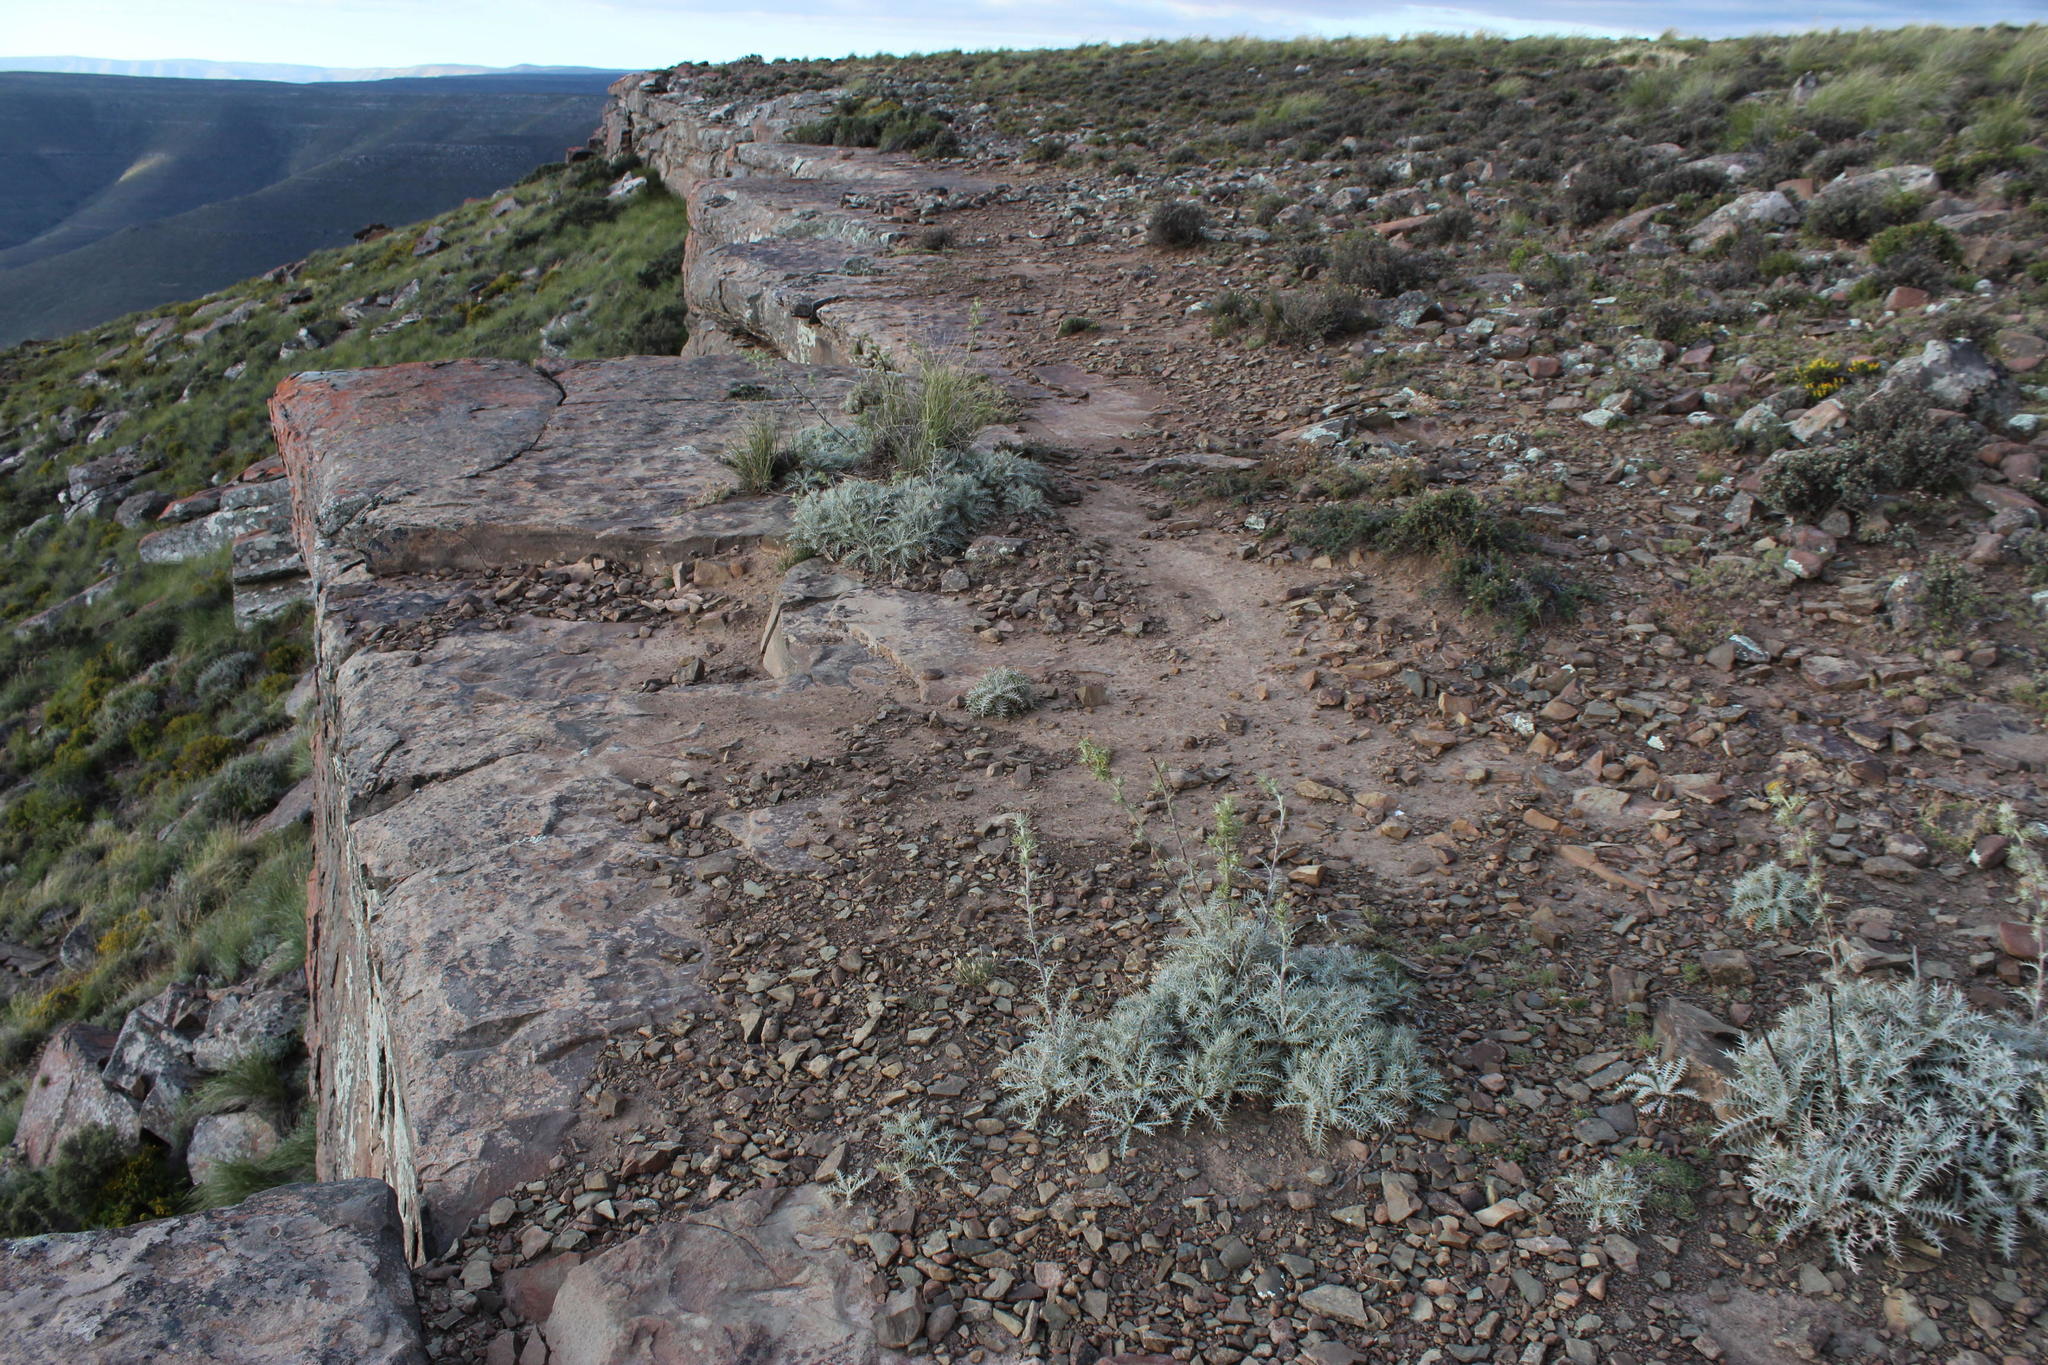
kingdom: Plantae
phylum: Tracheophyta
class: Magnoliopsida
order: Asterales
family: Asteraceae
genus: Berkheya
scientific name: Berkheya carlinifolia
